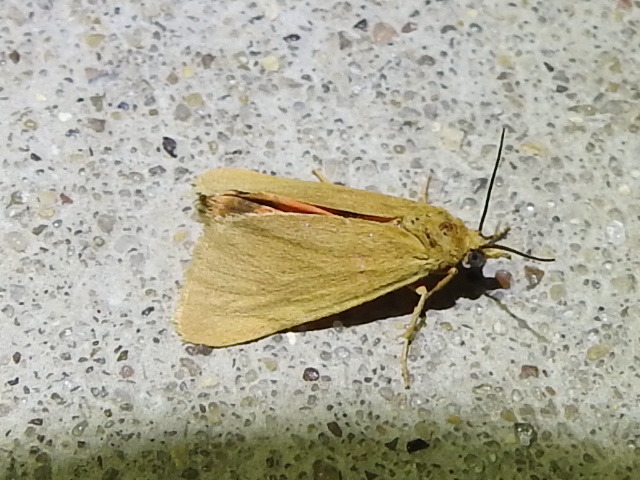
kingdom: Animalia
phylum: Arthropoda
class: Insecta
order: Lepidoptera
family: Erebidae
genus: Virbia
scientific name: Virbia aurantiaca
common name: Orange virbia moth
